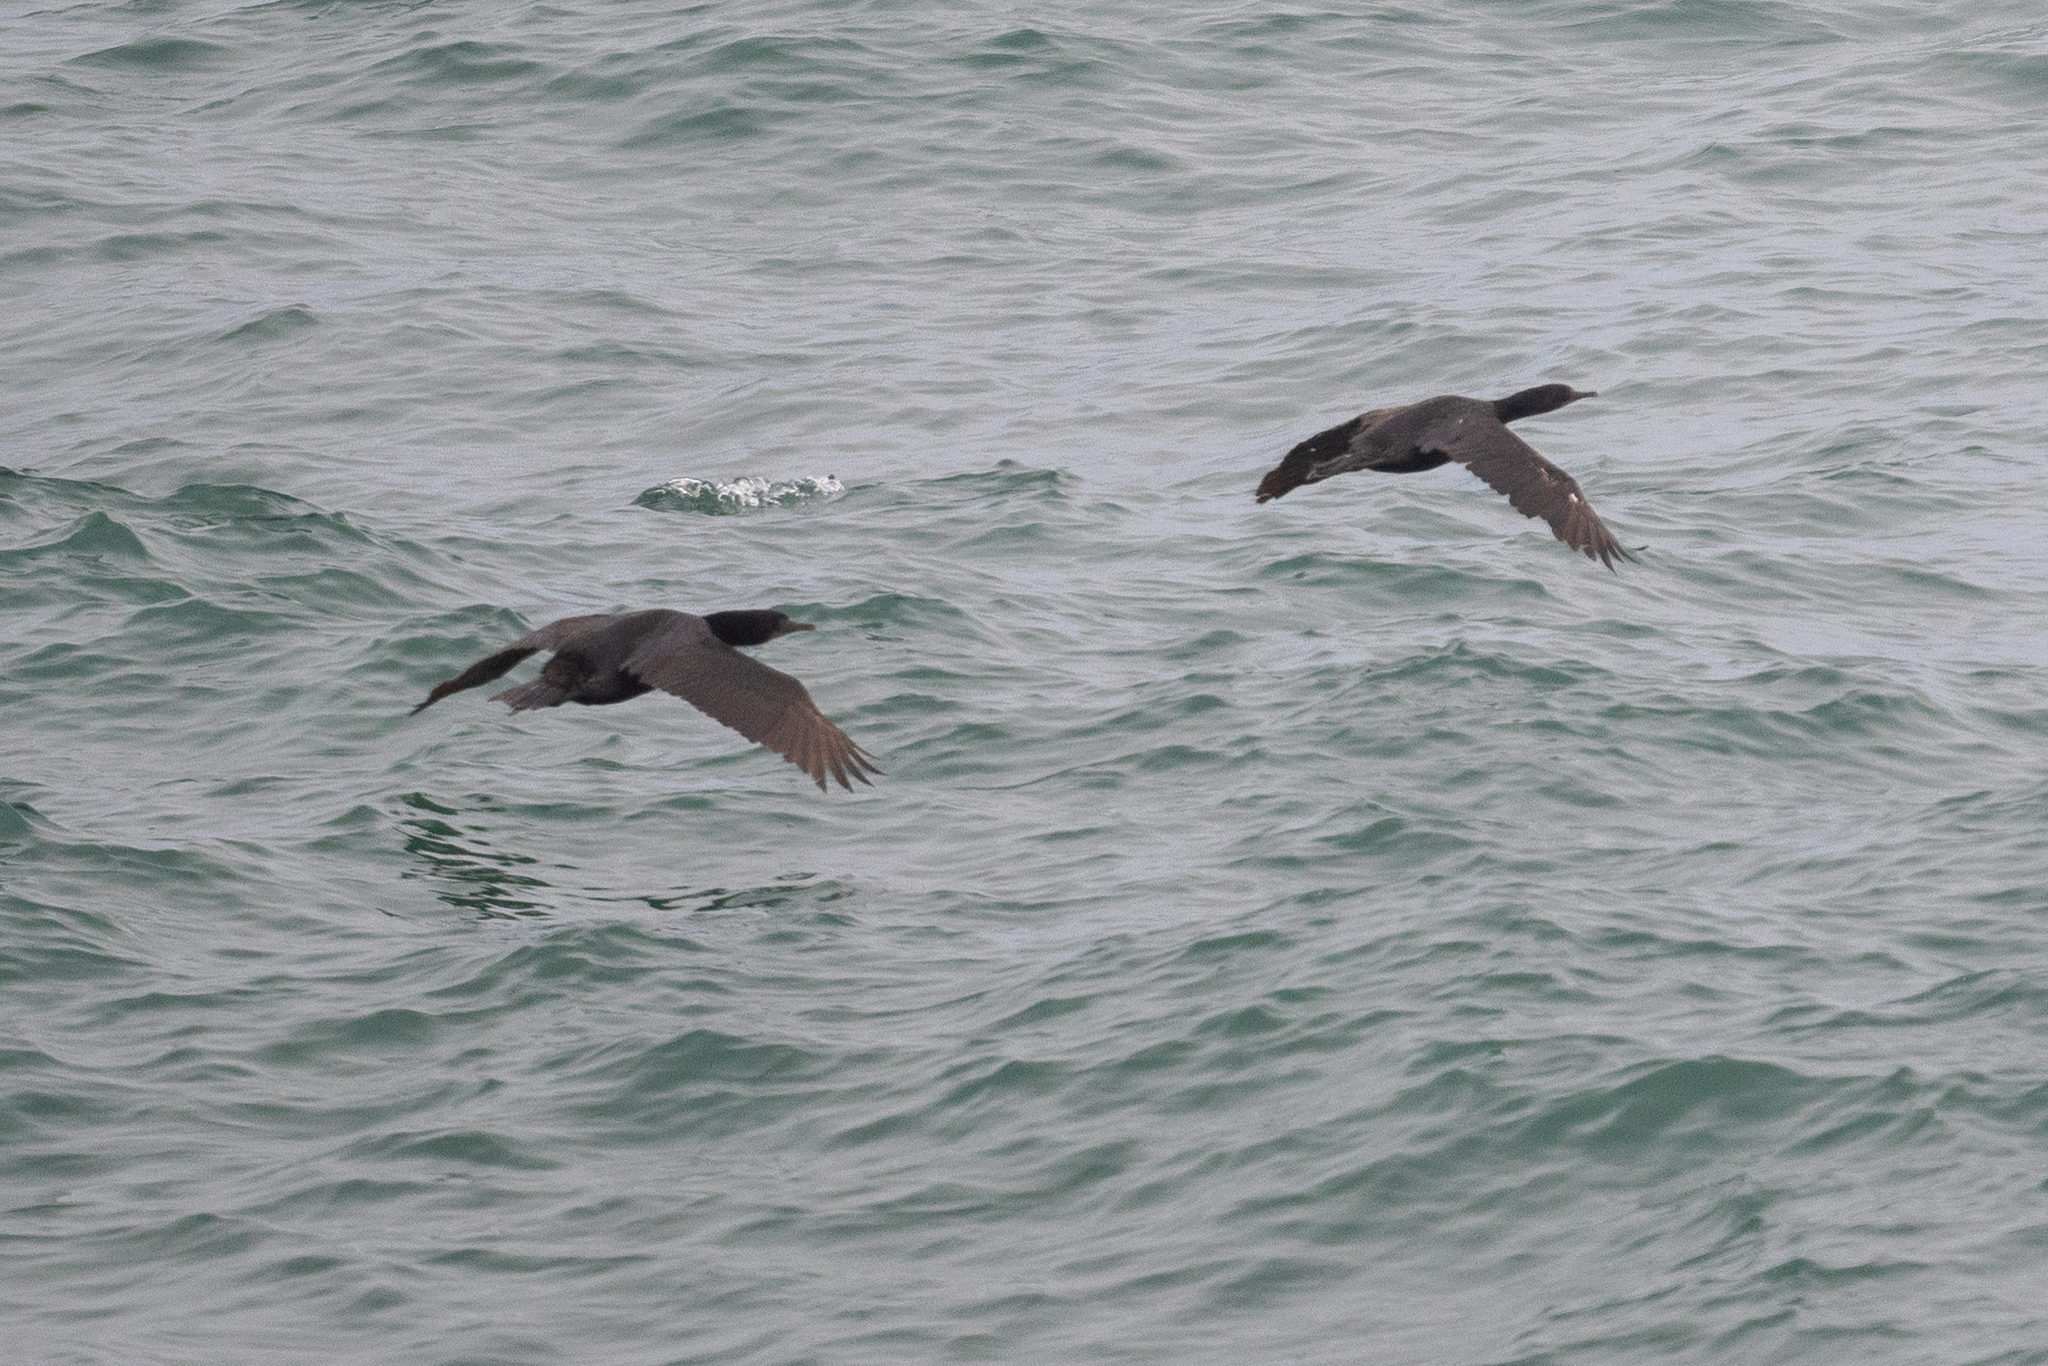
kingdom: Animalia
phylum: Chordata
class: Aves
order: Suliformes
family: Phalacrocoracidae
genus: Urile
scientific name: Urile penicillatus
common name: Brandt's cormorant
